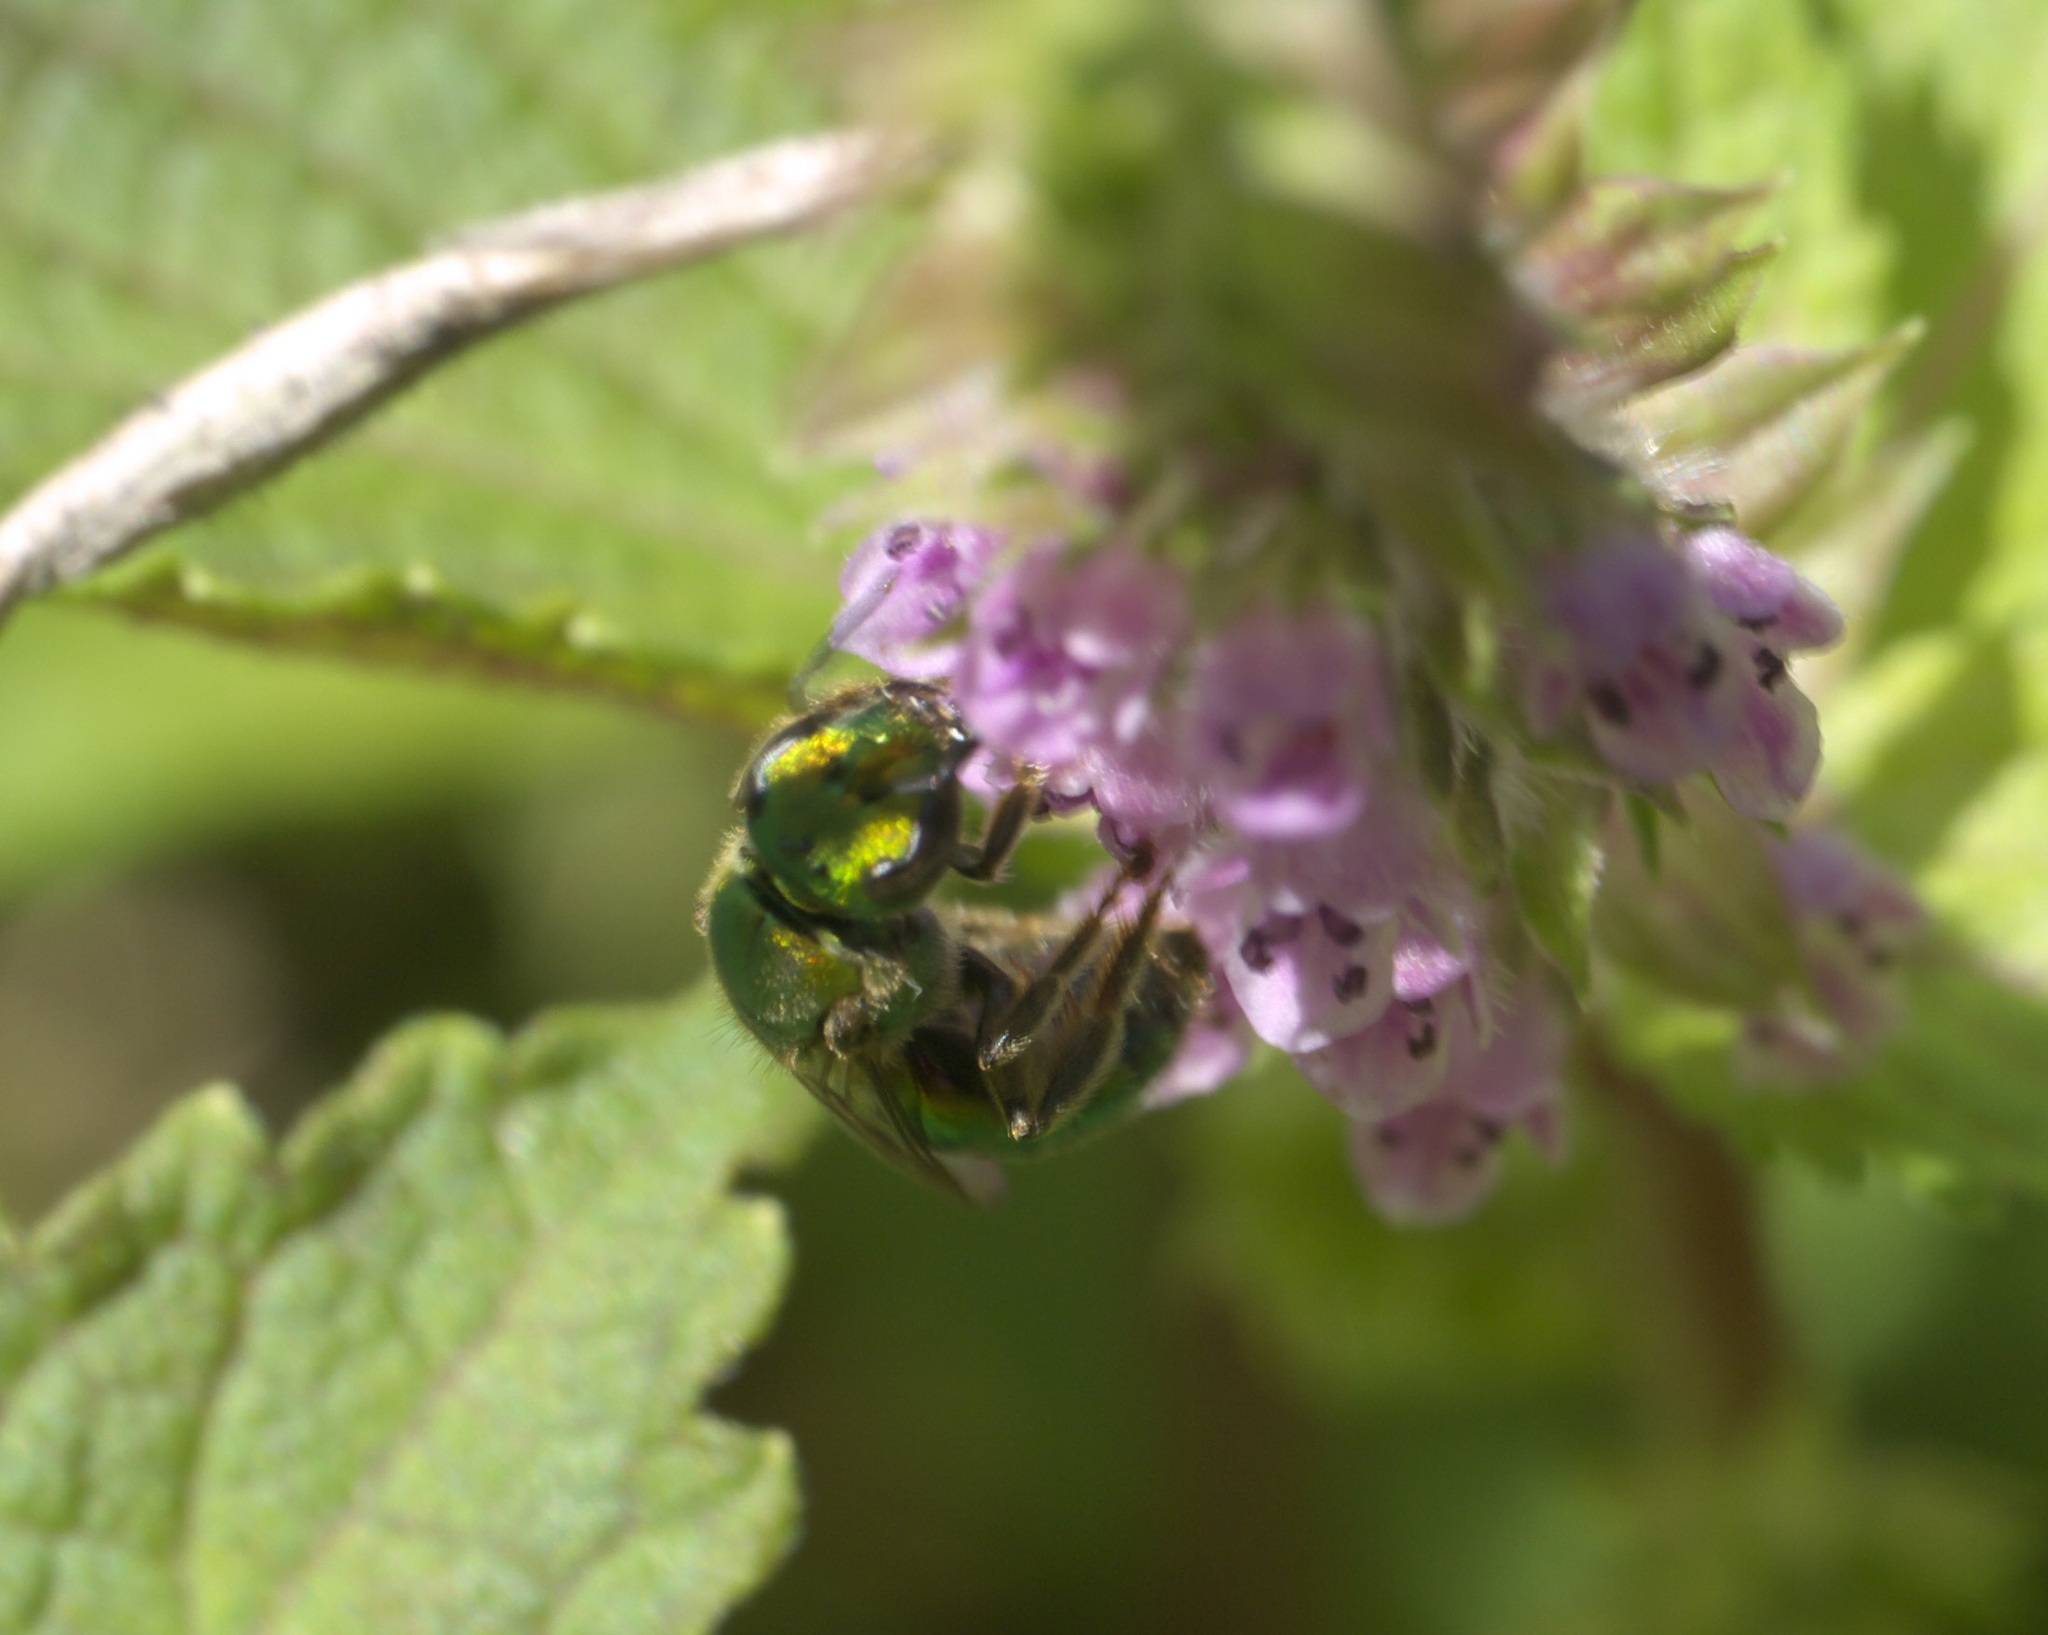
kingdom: Animalia
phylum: Arthropoda
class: Insecta
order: Hymenoptera
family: Halictidae
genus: Augochlora
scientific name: Augochlora pura
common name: Pure green sweat bee
